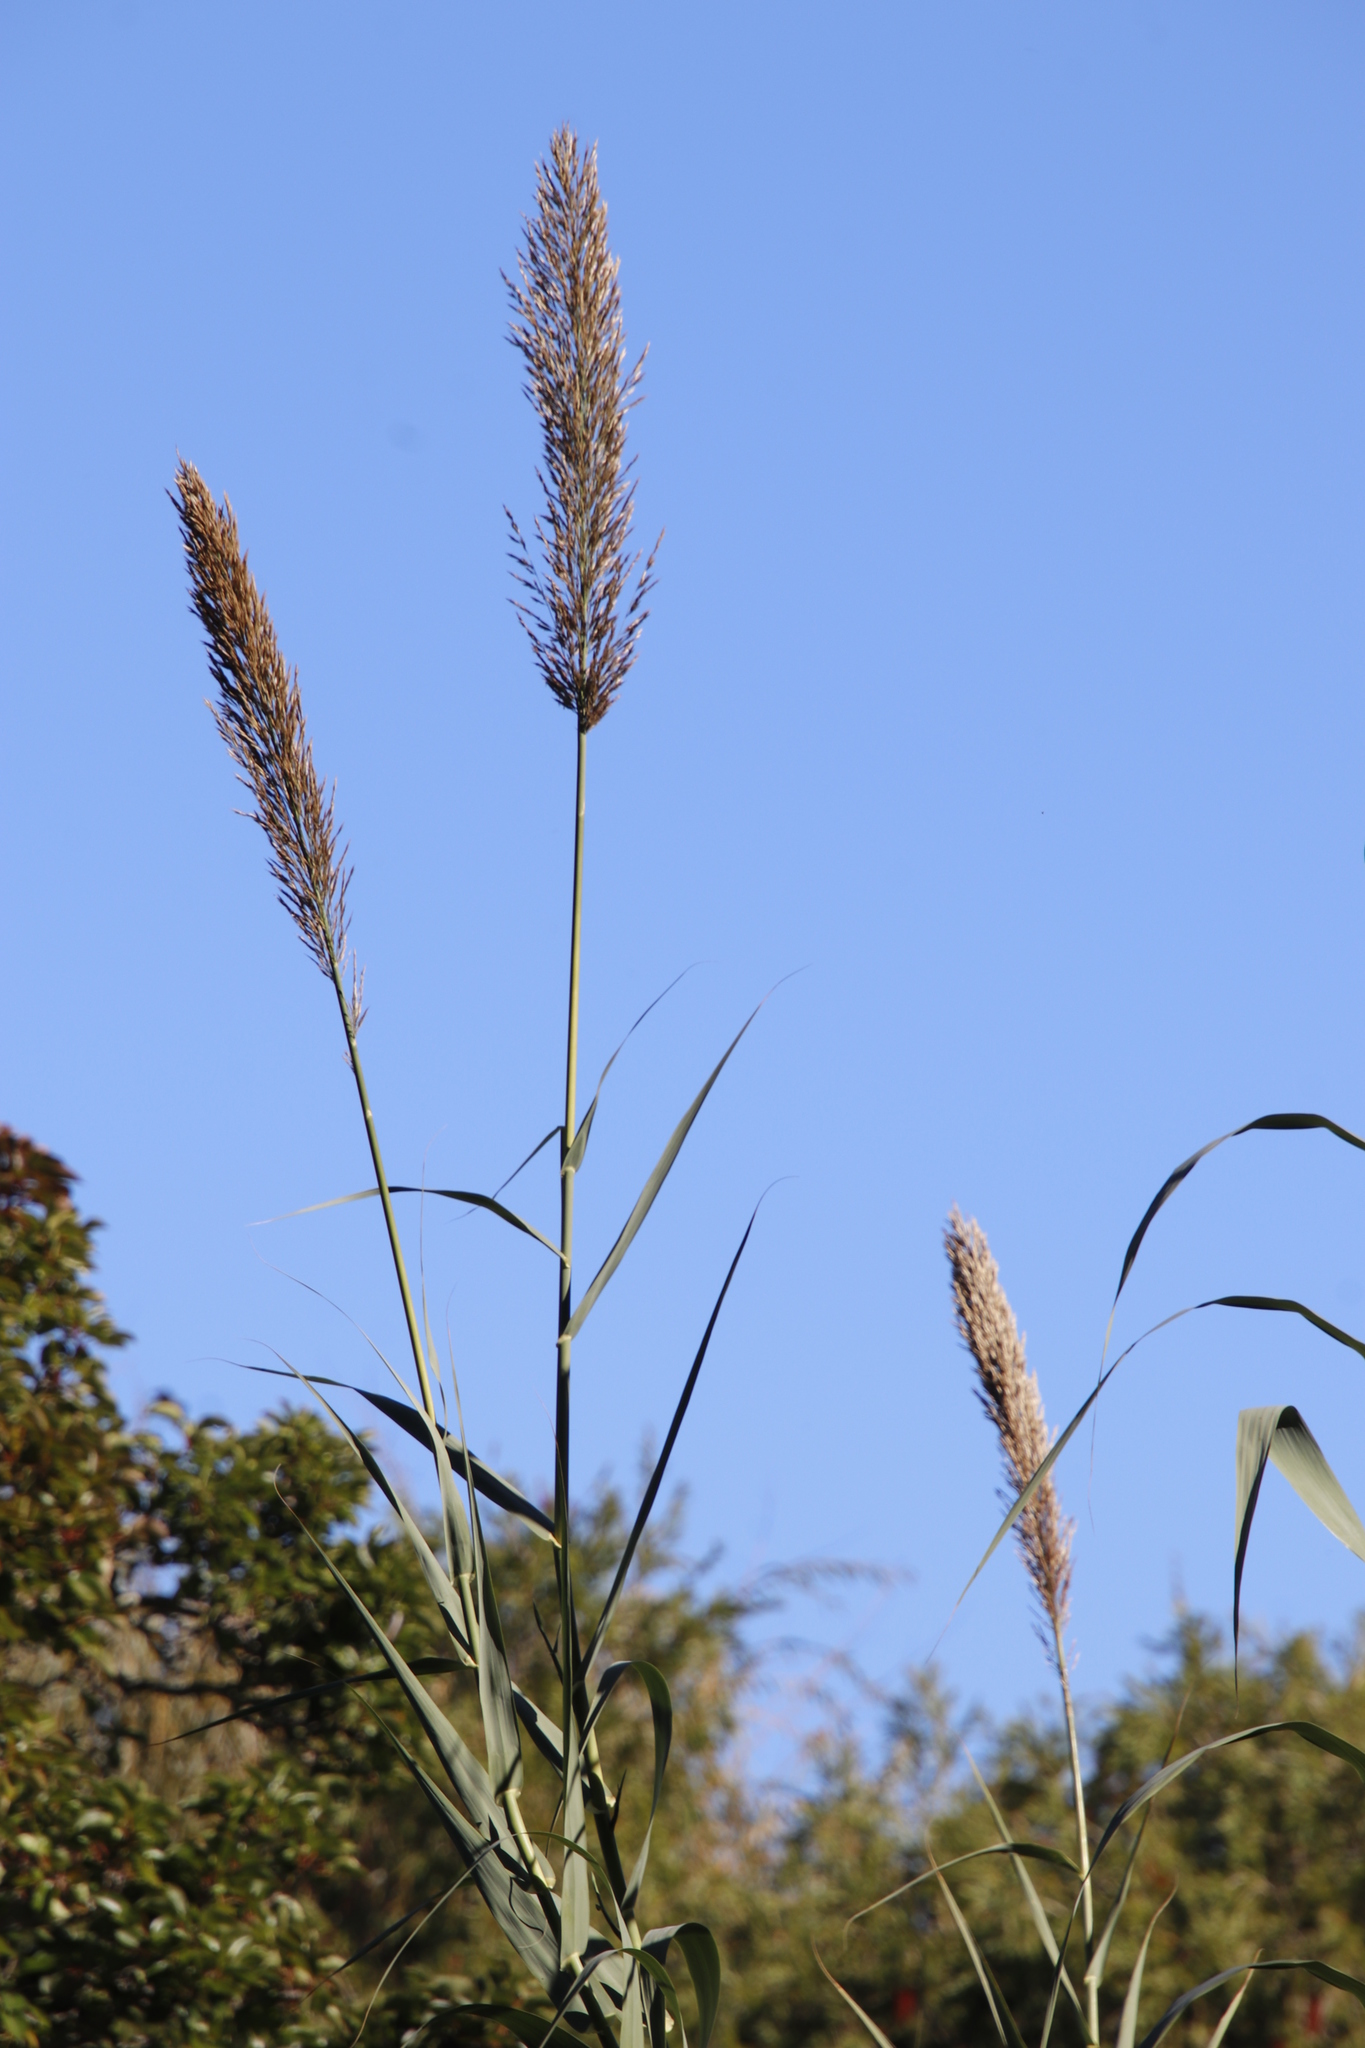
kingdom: Plantae
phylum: Tracheophyta
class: Liliopsida
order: Poales
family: Poaceae
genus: Arundo
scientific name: Arundo donax
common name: Giant reed
